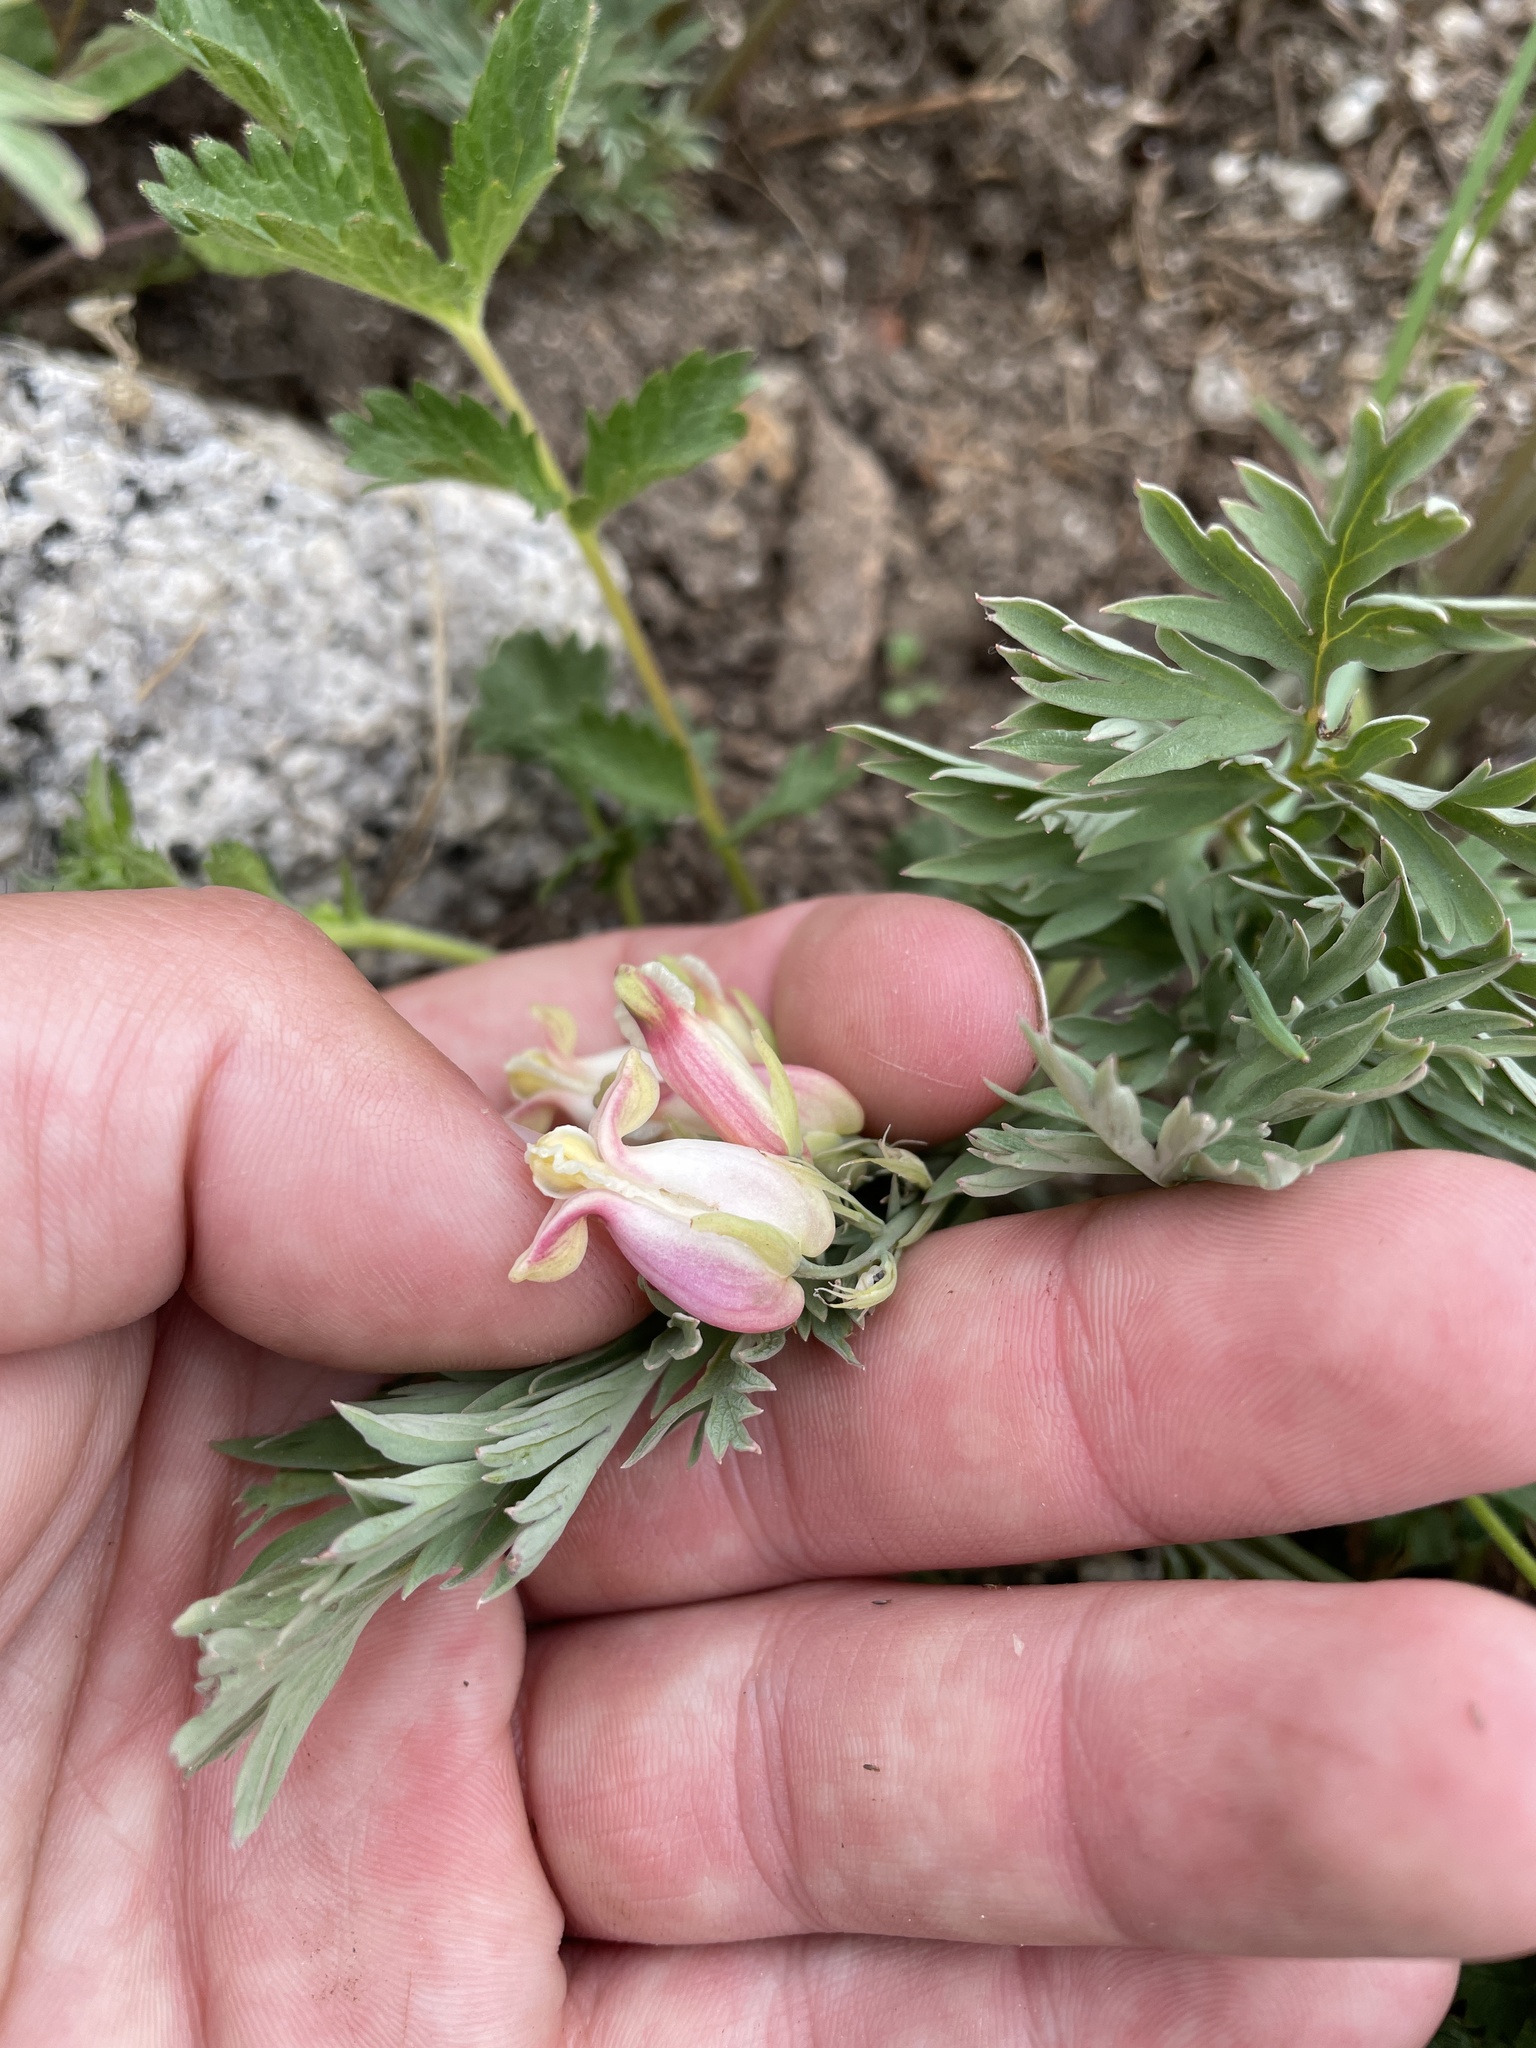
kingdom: Plantae
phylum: Tracheophyta
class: Magnoliopsida
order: Ranunculales
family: Papaveraceae
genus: Dicentra
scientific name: Dicentra nevadensis
